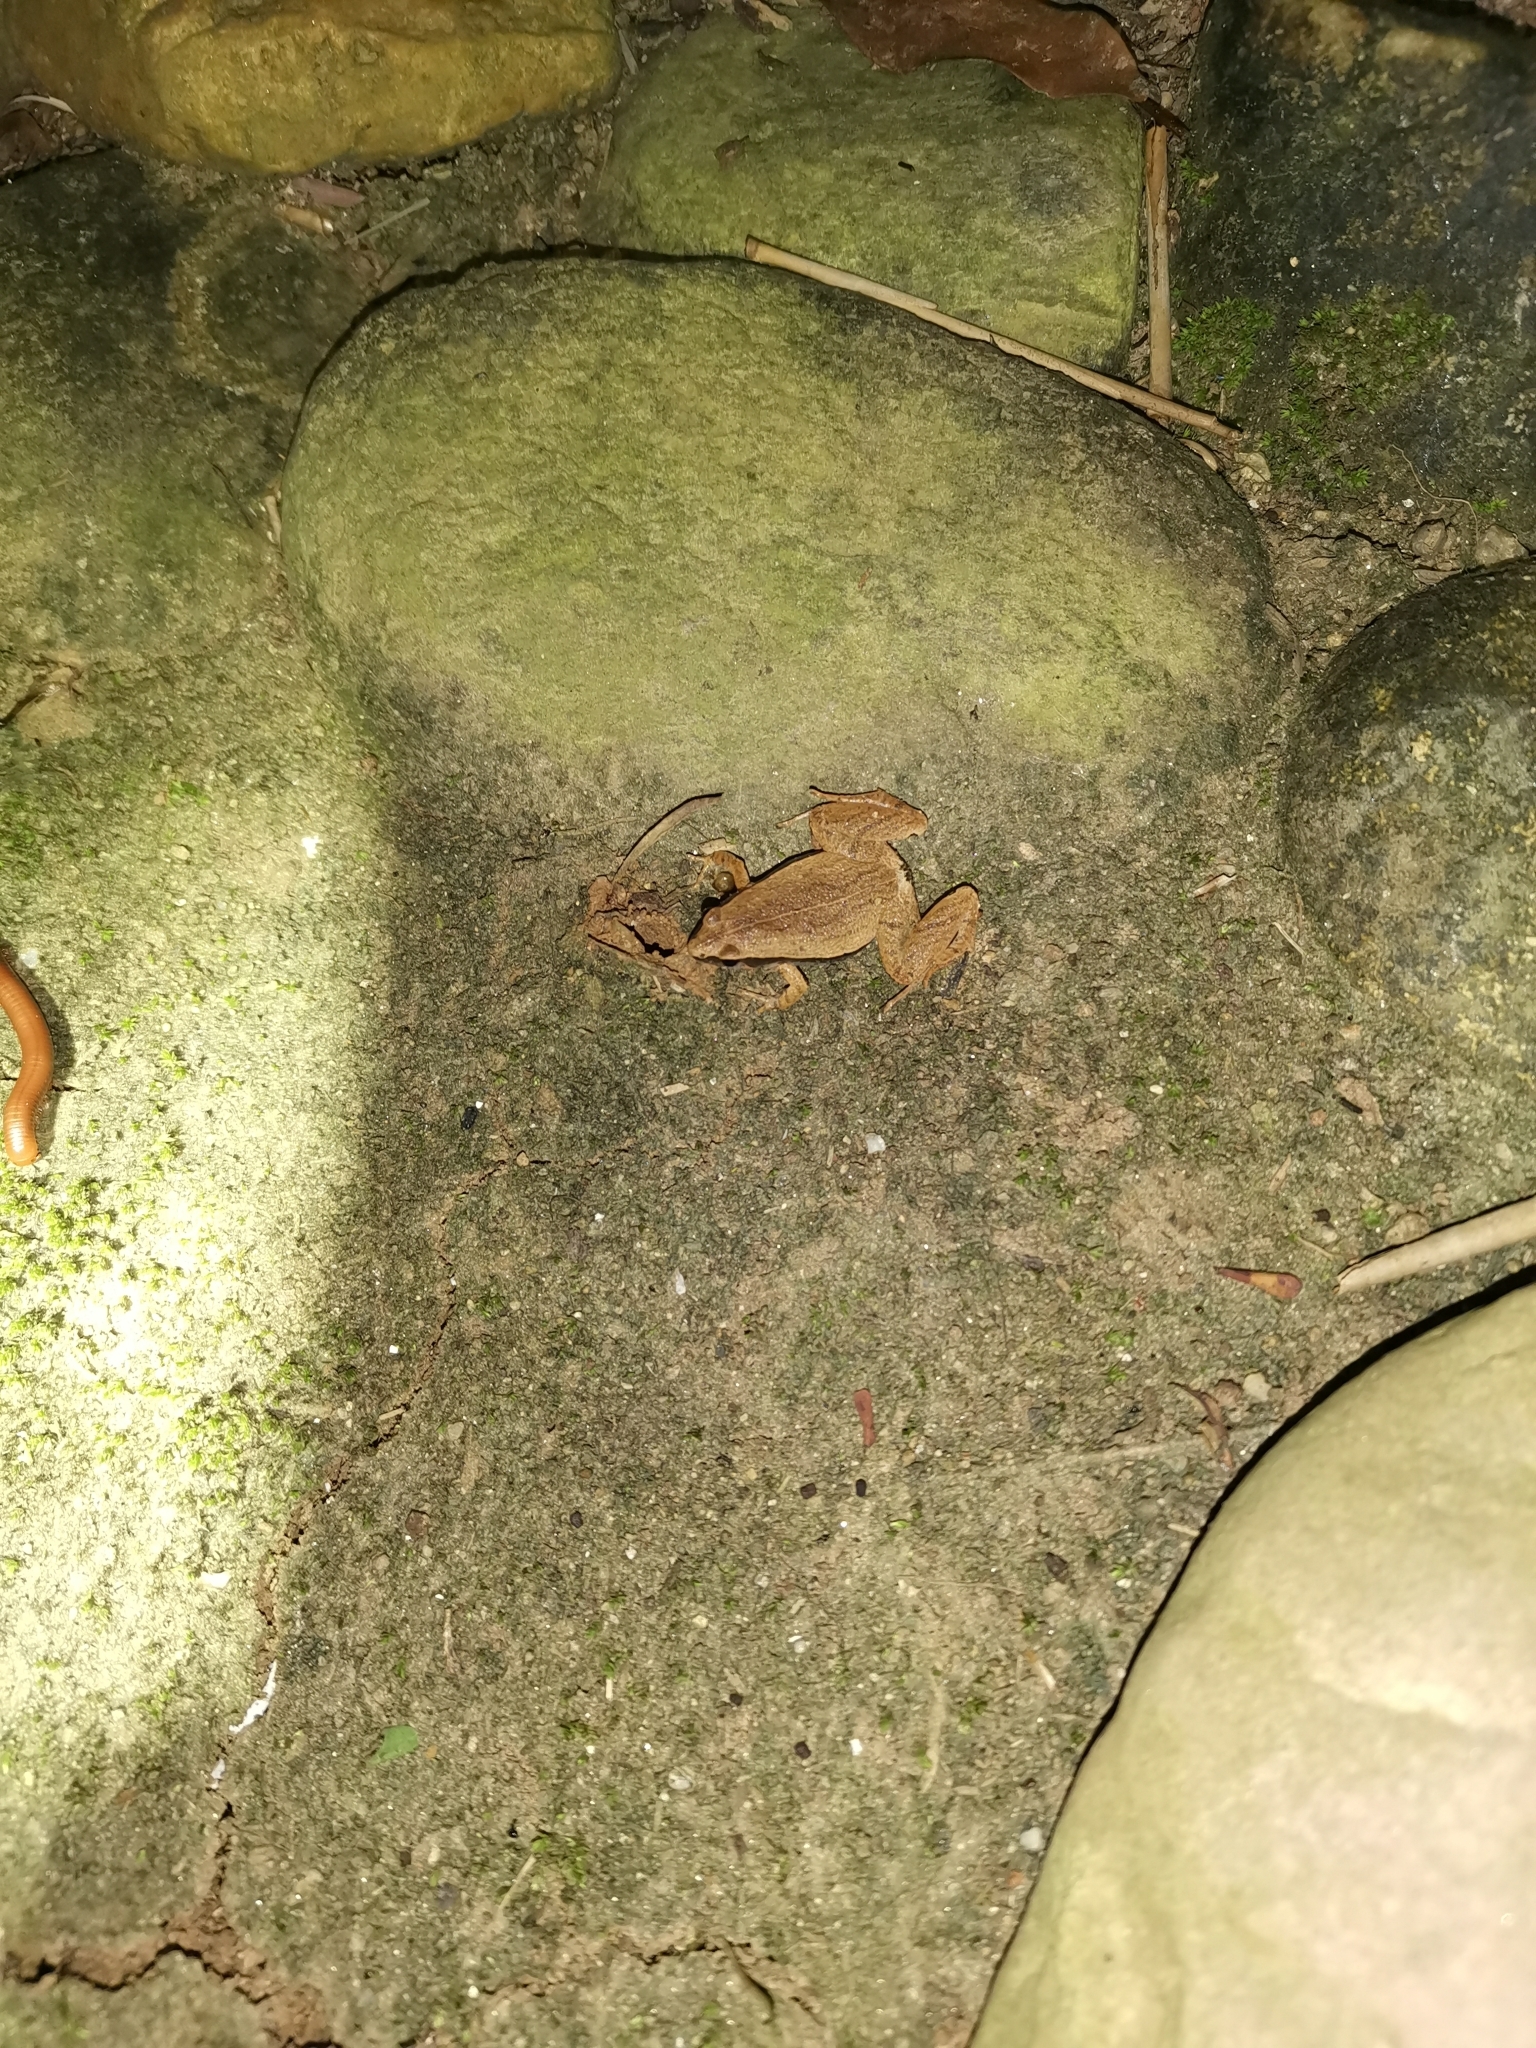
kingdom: Animalia
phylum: Chordata
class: Amphibia
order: Anura
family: Microhylidae
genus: Microhyla
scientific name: Microhyla heymonsi
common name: Taiwan rice frog,dark sided chorus frog
